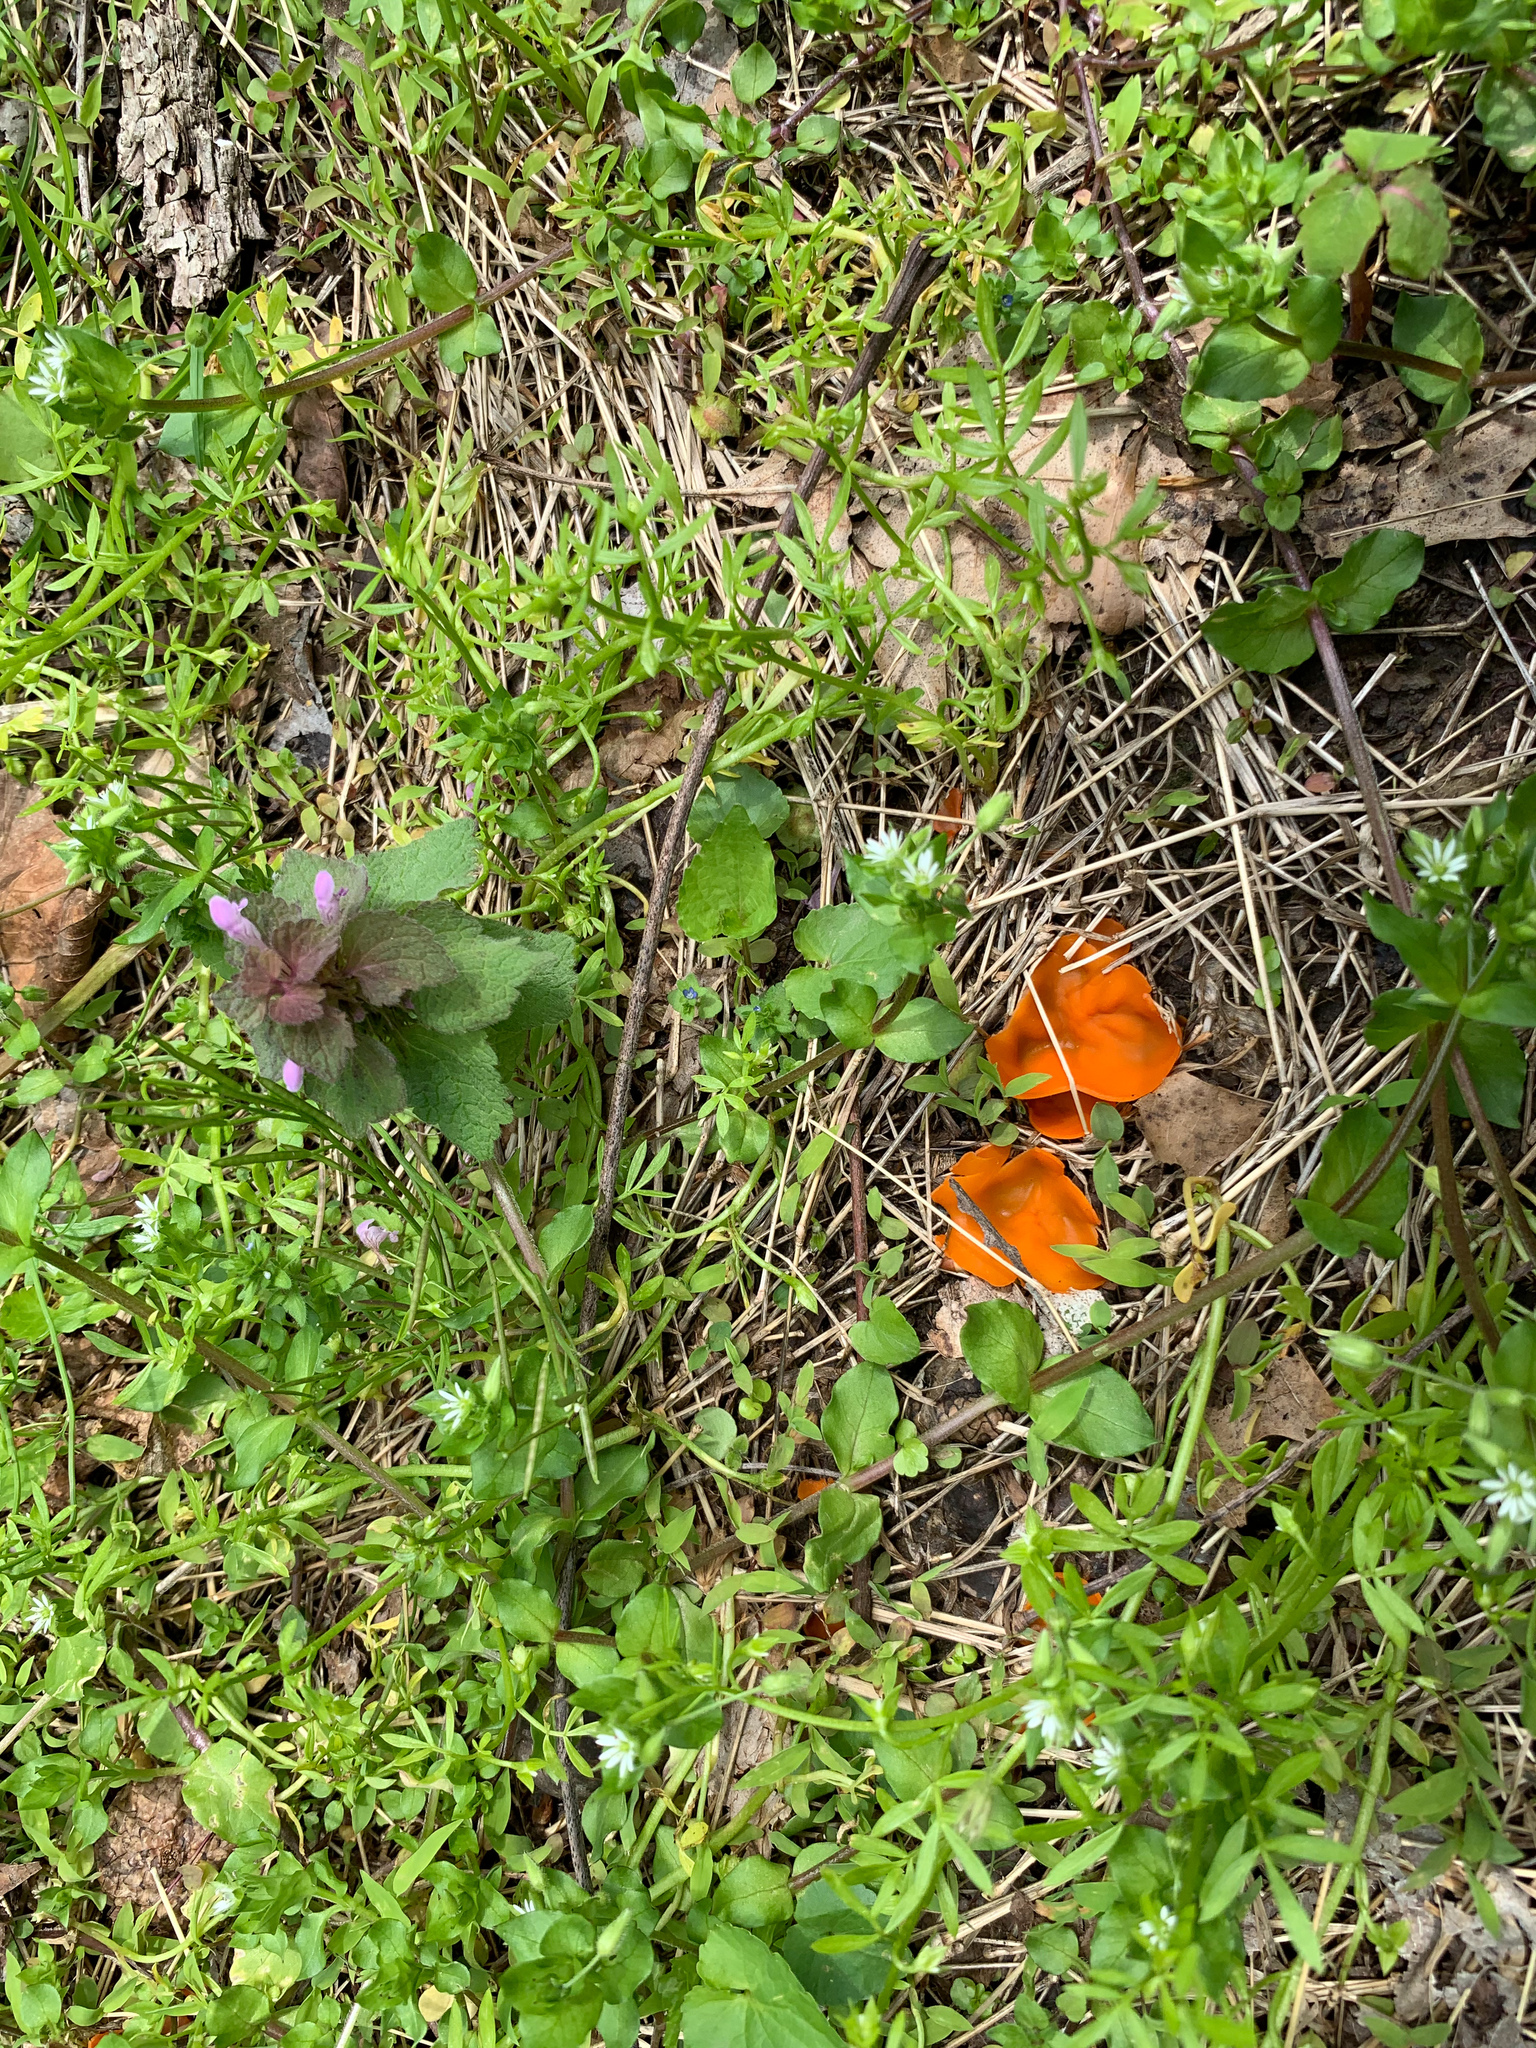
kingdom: Fungi
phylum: Ascomycota
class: Pezizomycetes
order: Pezizales
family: Pyronemataceae
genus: Aleuria
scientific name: Aleuria aurantia
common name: Orange peel fungus
